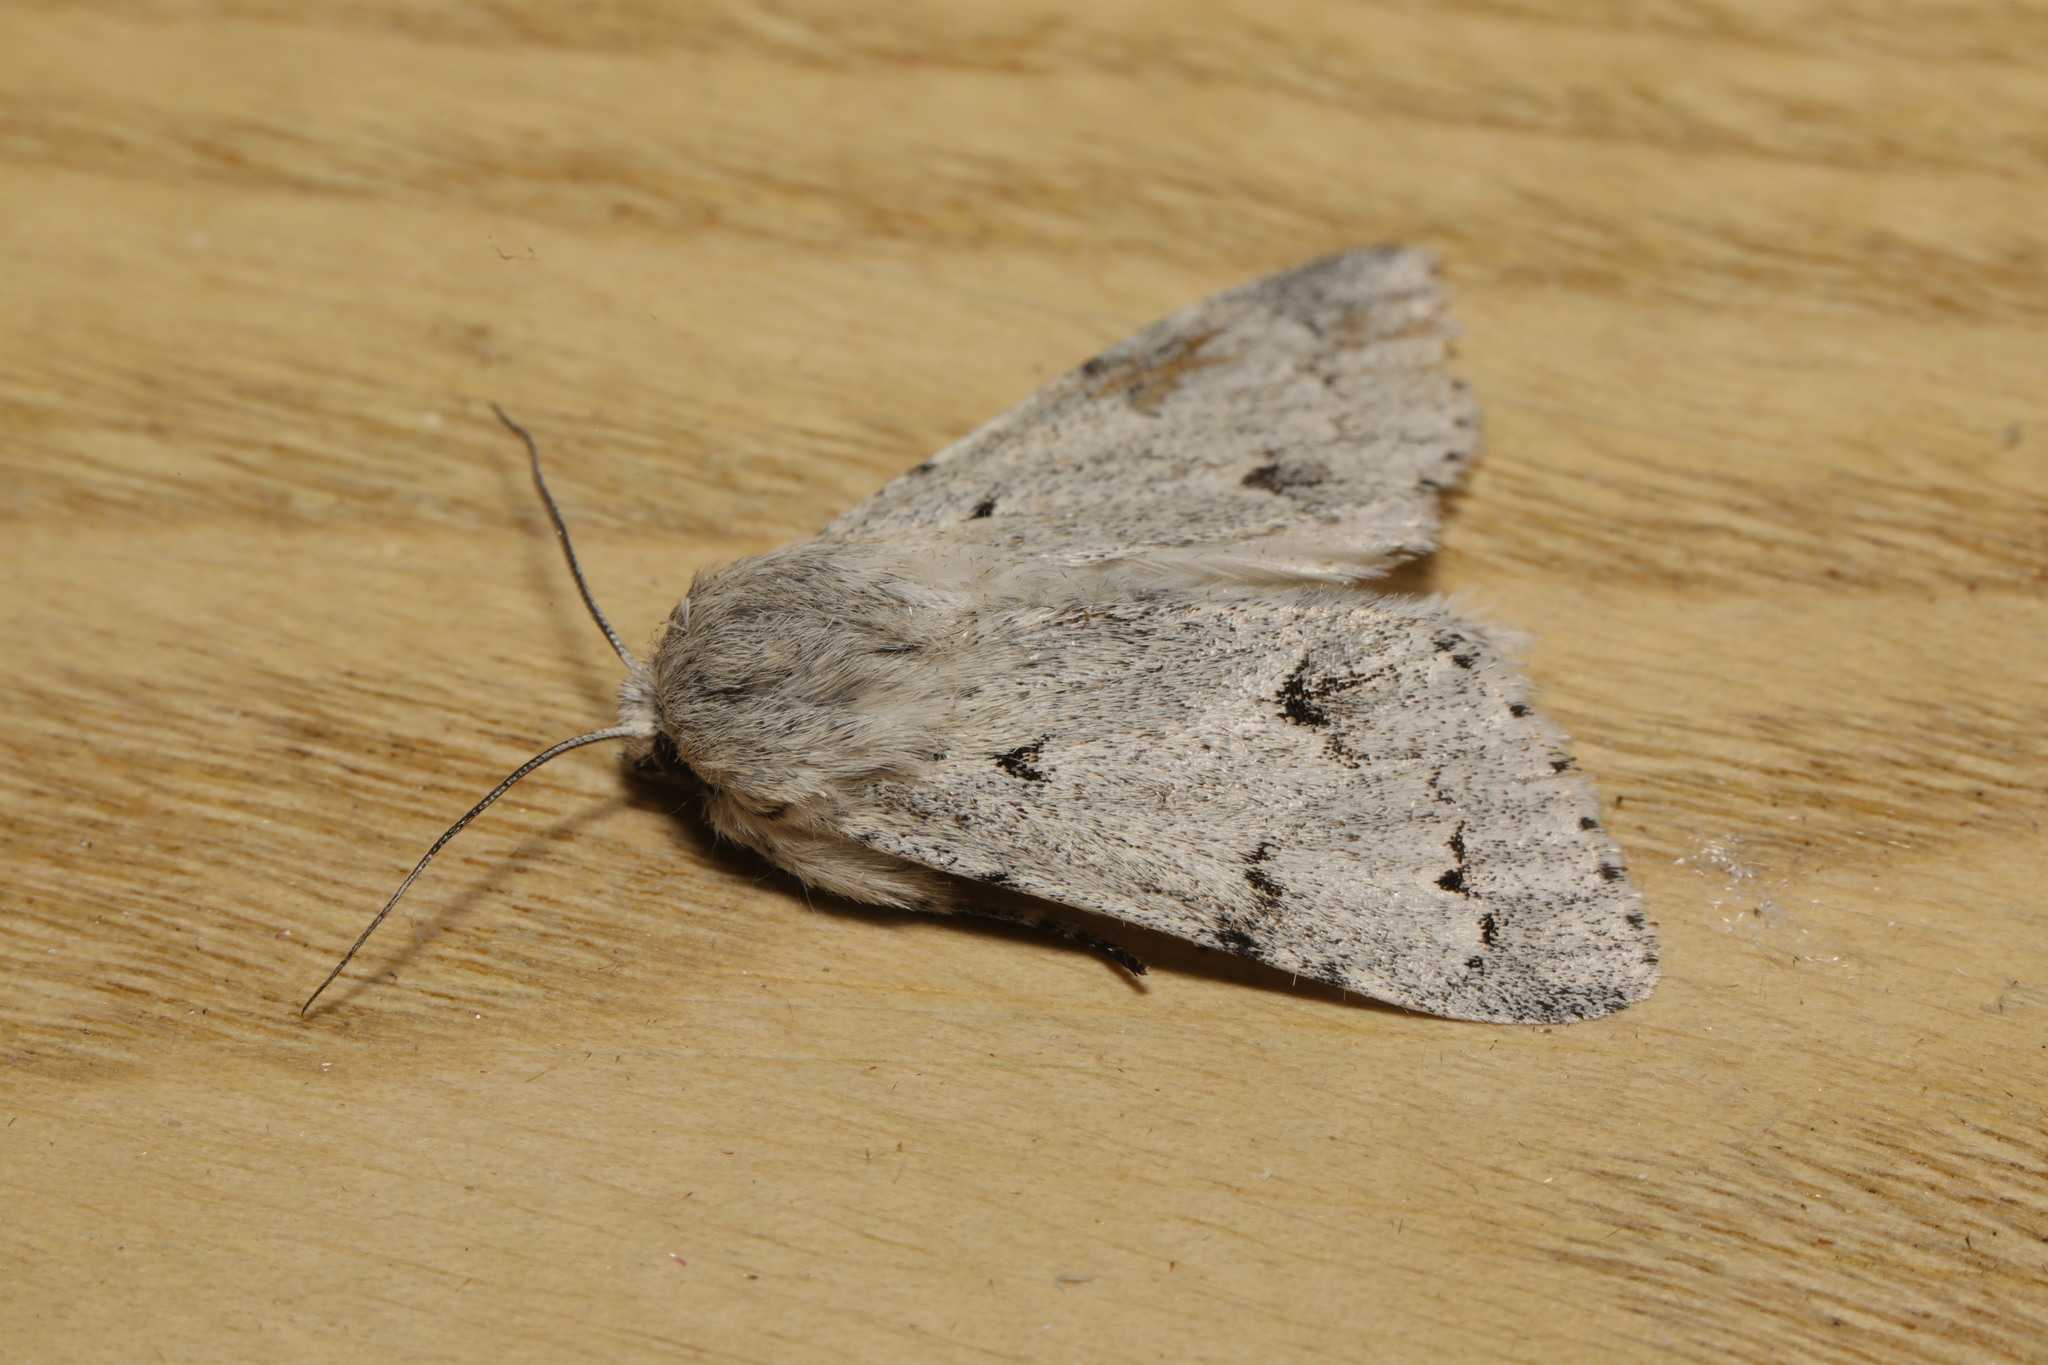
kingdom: Animalia
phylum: Arthropoda
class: Insecta
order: Lepidoptera
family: Noctuidae
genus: Acronicta
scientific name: Acronicta leporina
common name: Miller
